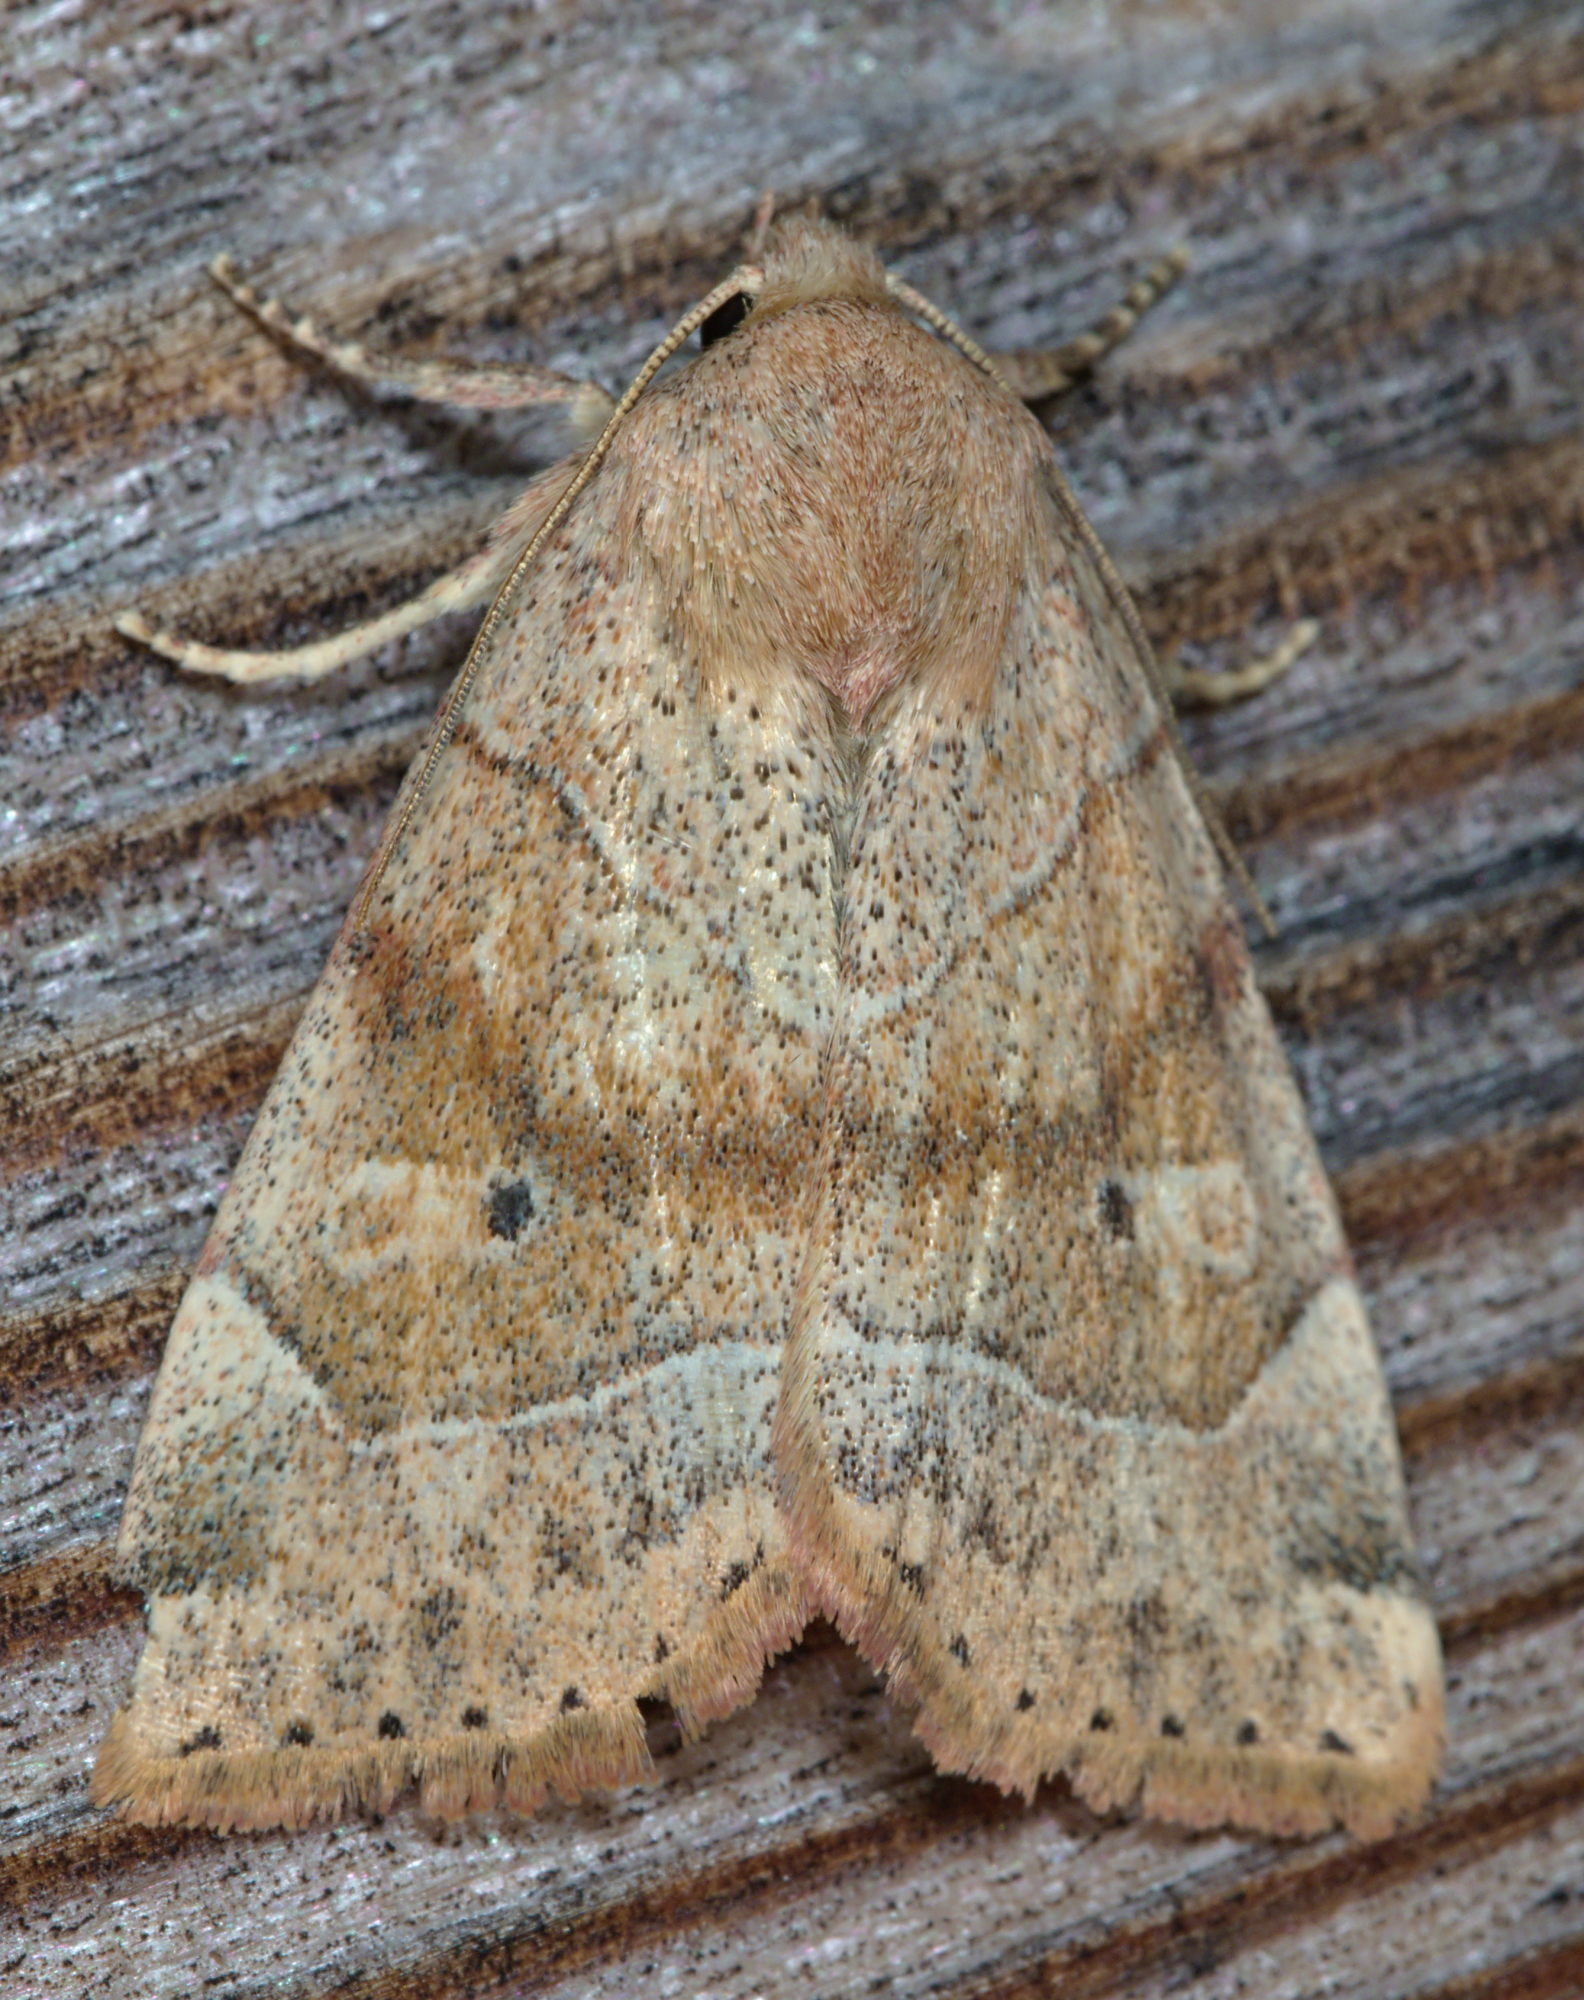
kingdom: Animalia
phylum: Arthropoda
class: Insecta
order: Lepidoptera
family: Noctuidae
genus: Cosmia
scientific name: Cosmia trapezina
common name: Dun-bar
